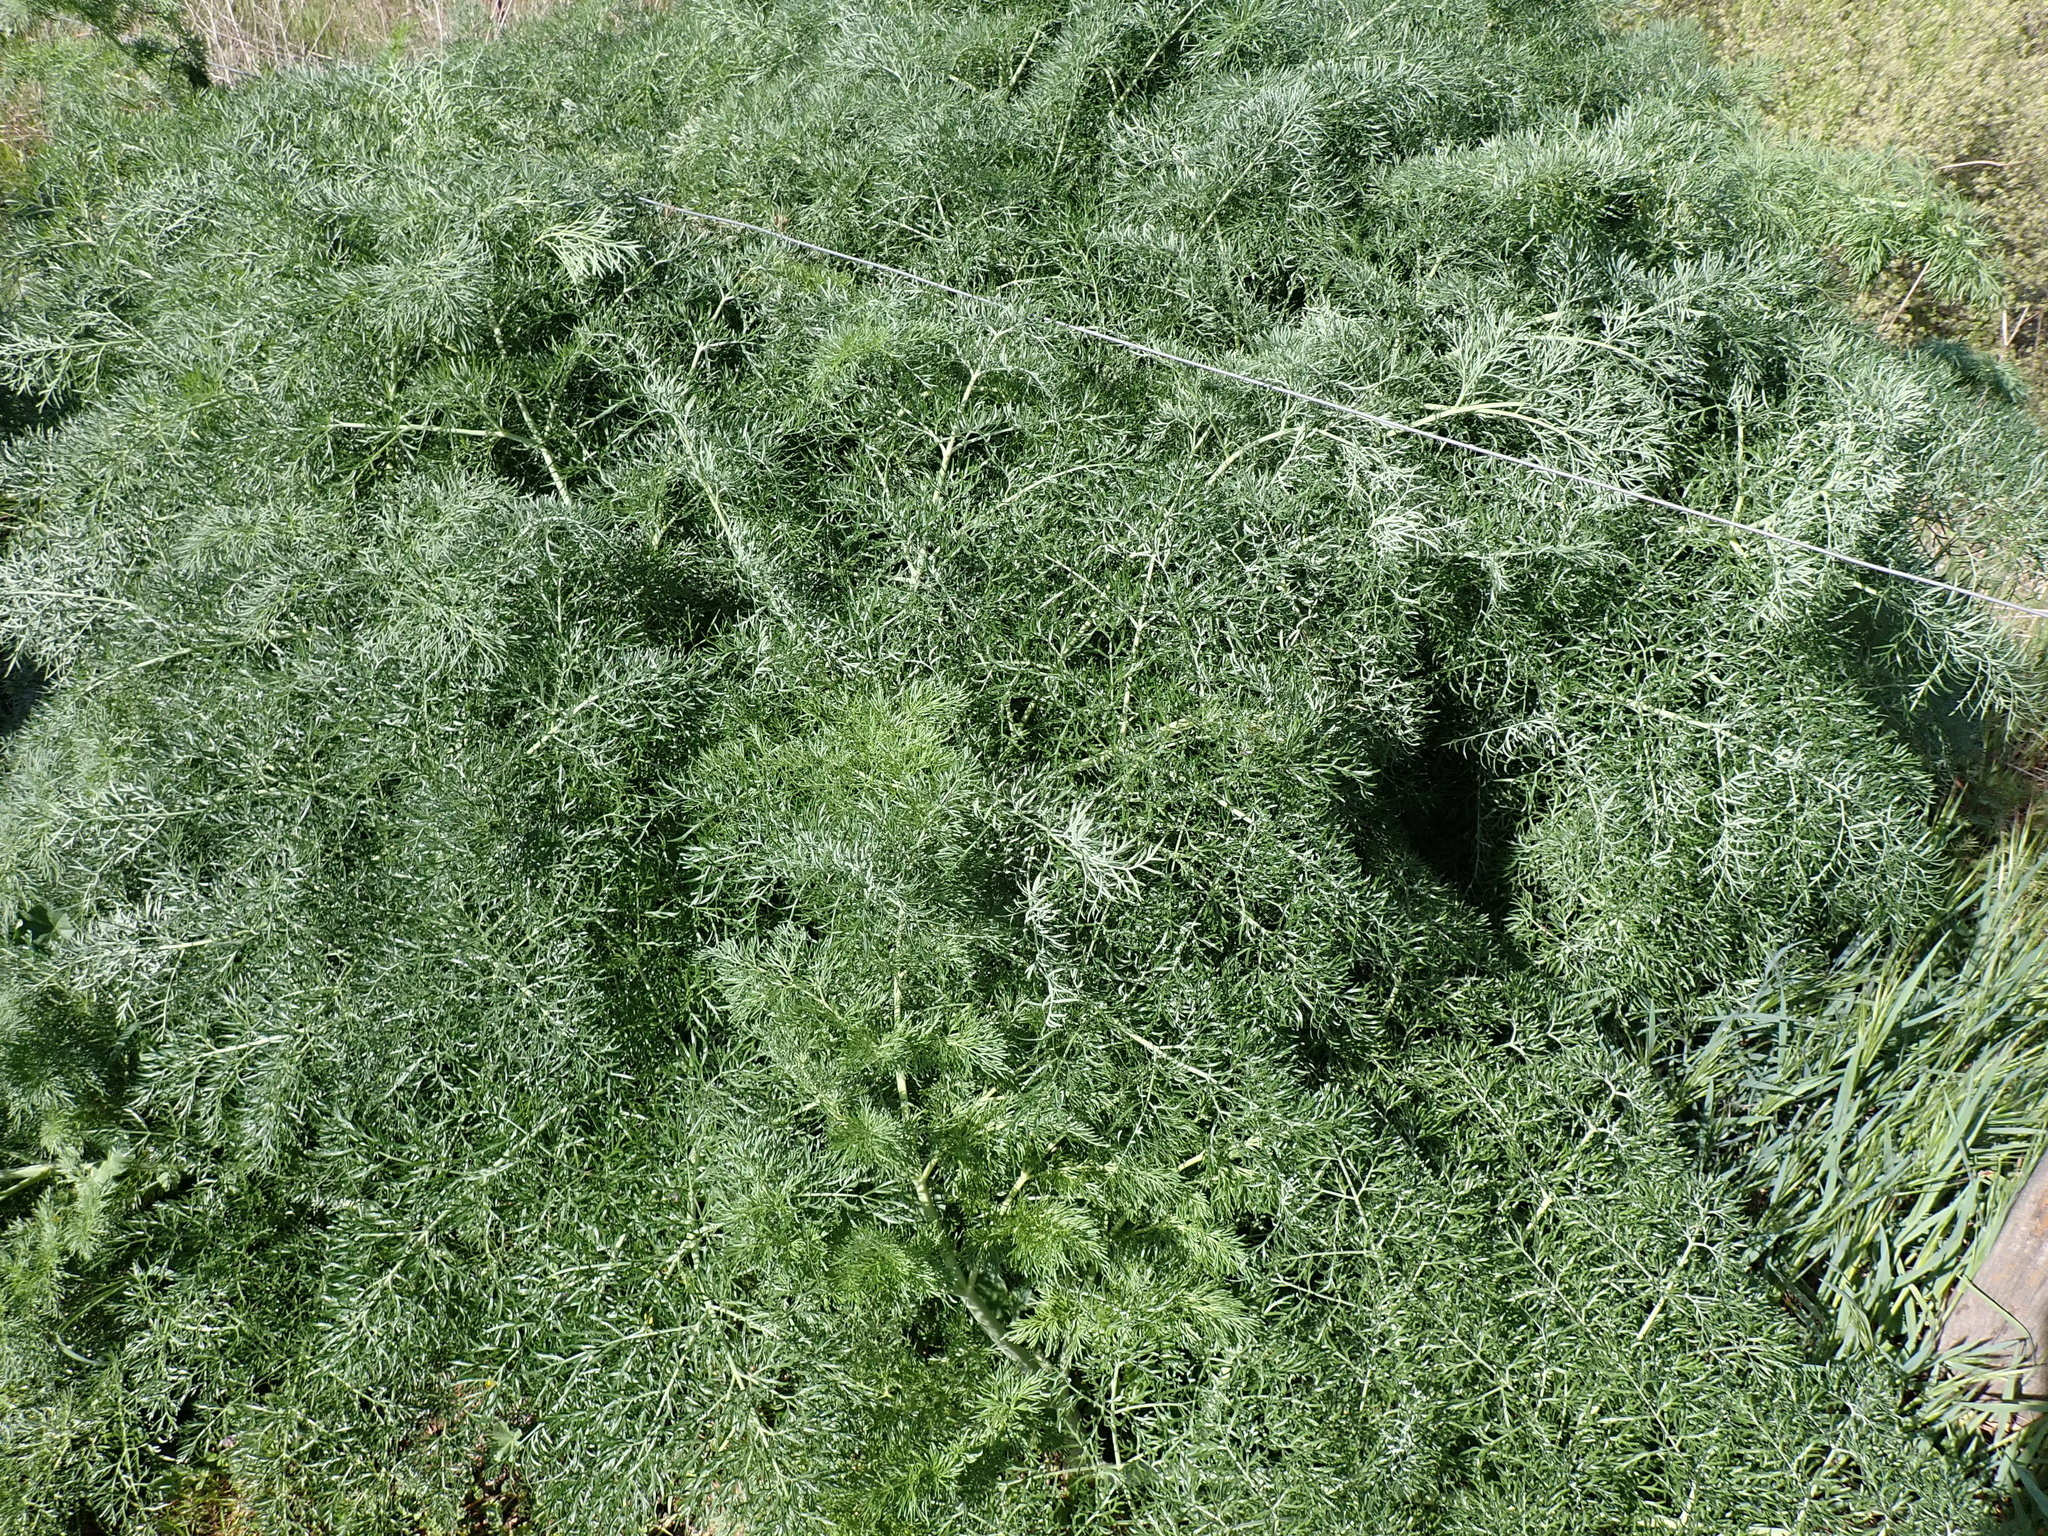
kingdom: Plantae
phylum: Tracheophyta
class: Magnoliopsida
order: Apiales
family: Apiaceae
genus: Ferula
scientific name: Ferula glauca
